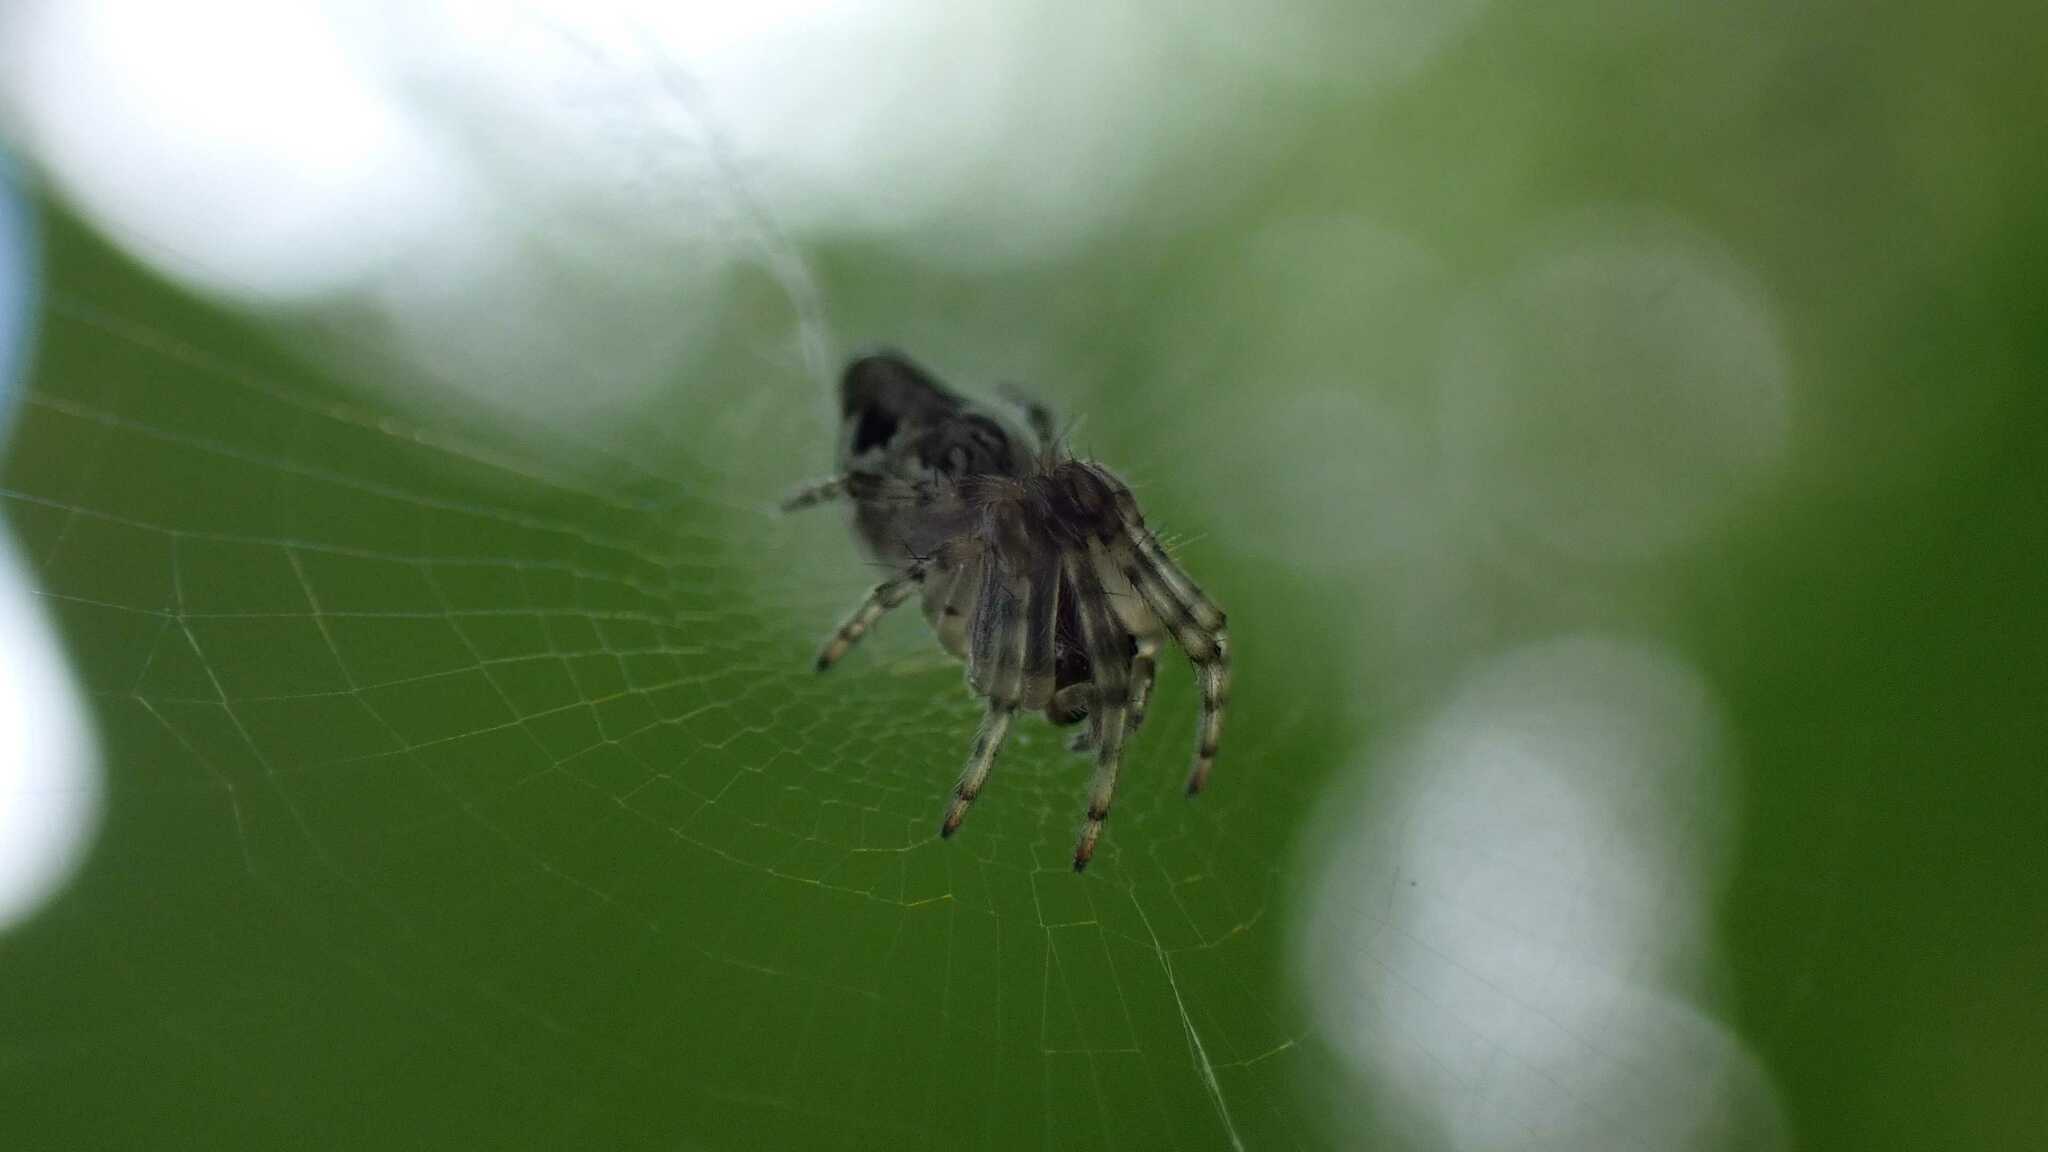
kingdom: Animalia
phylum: Arthropoda
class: Arachnida
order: Araneae
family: Araneidae
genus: Cyclosa
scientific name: Cyclosa conica
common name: Conical trashline orbweaver
